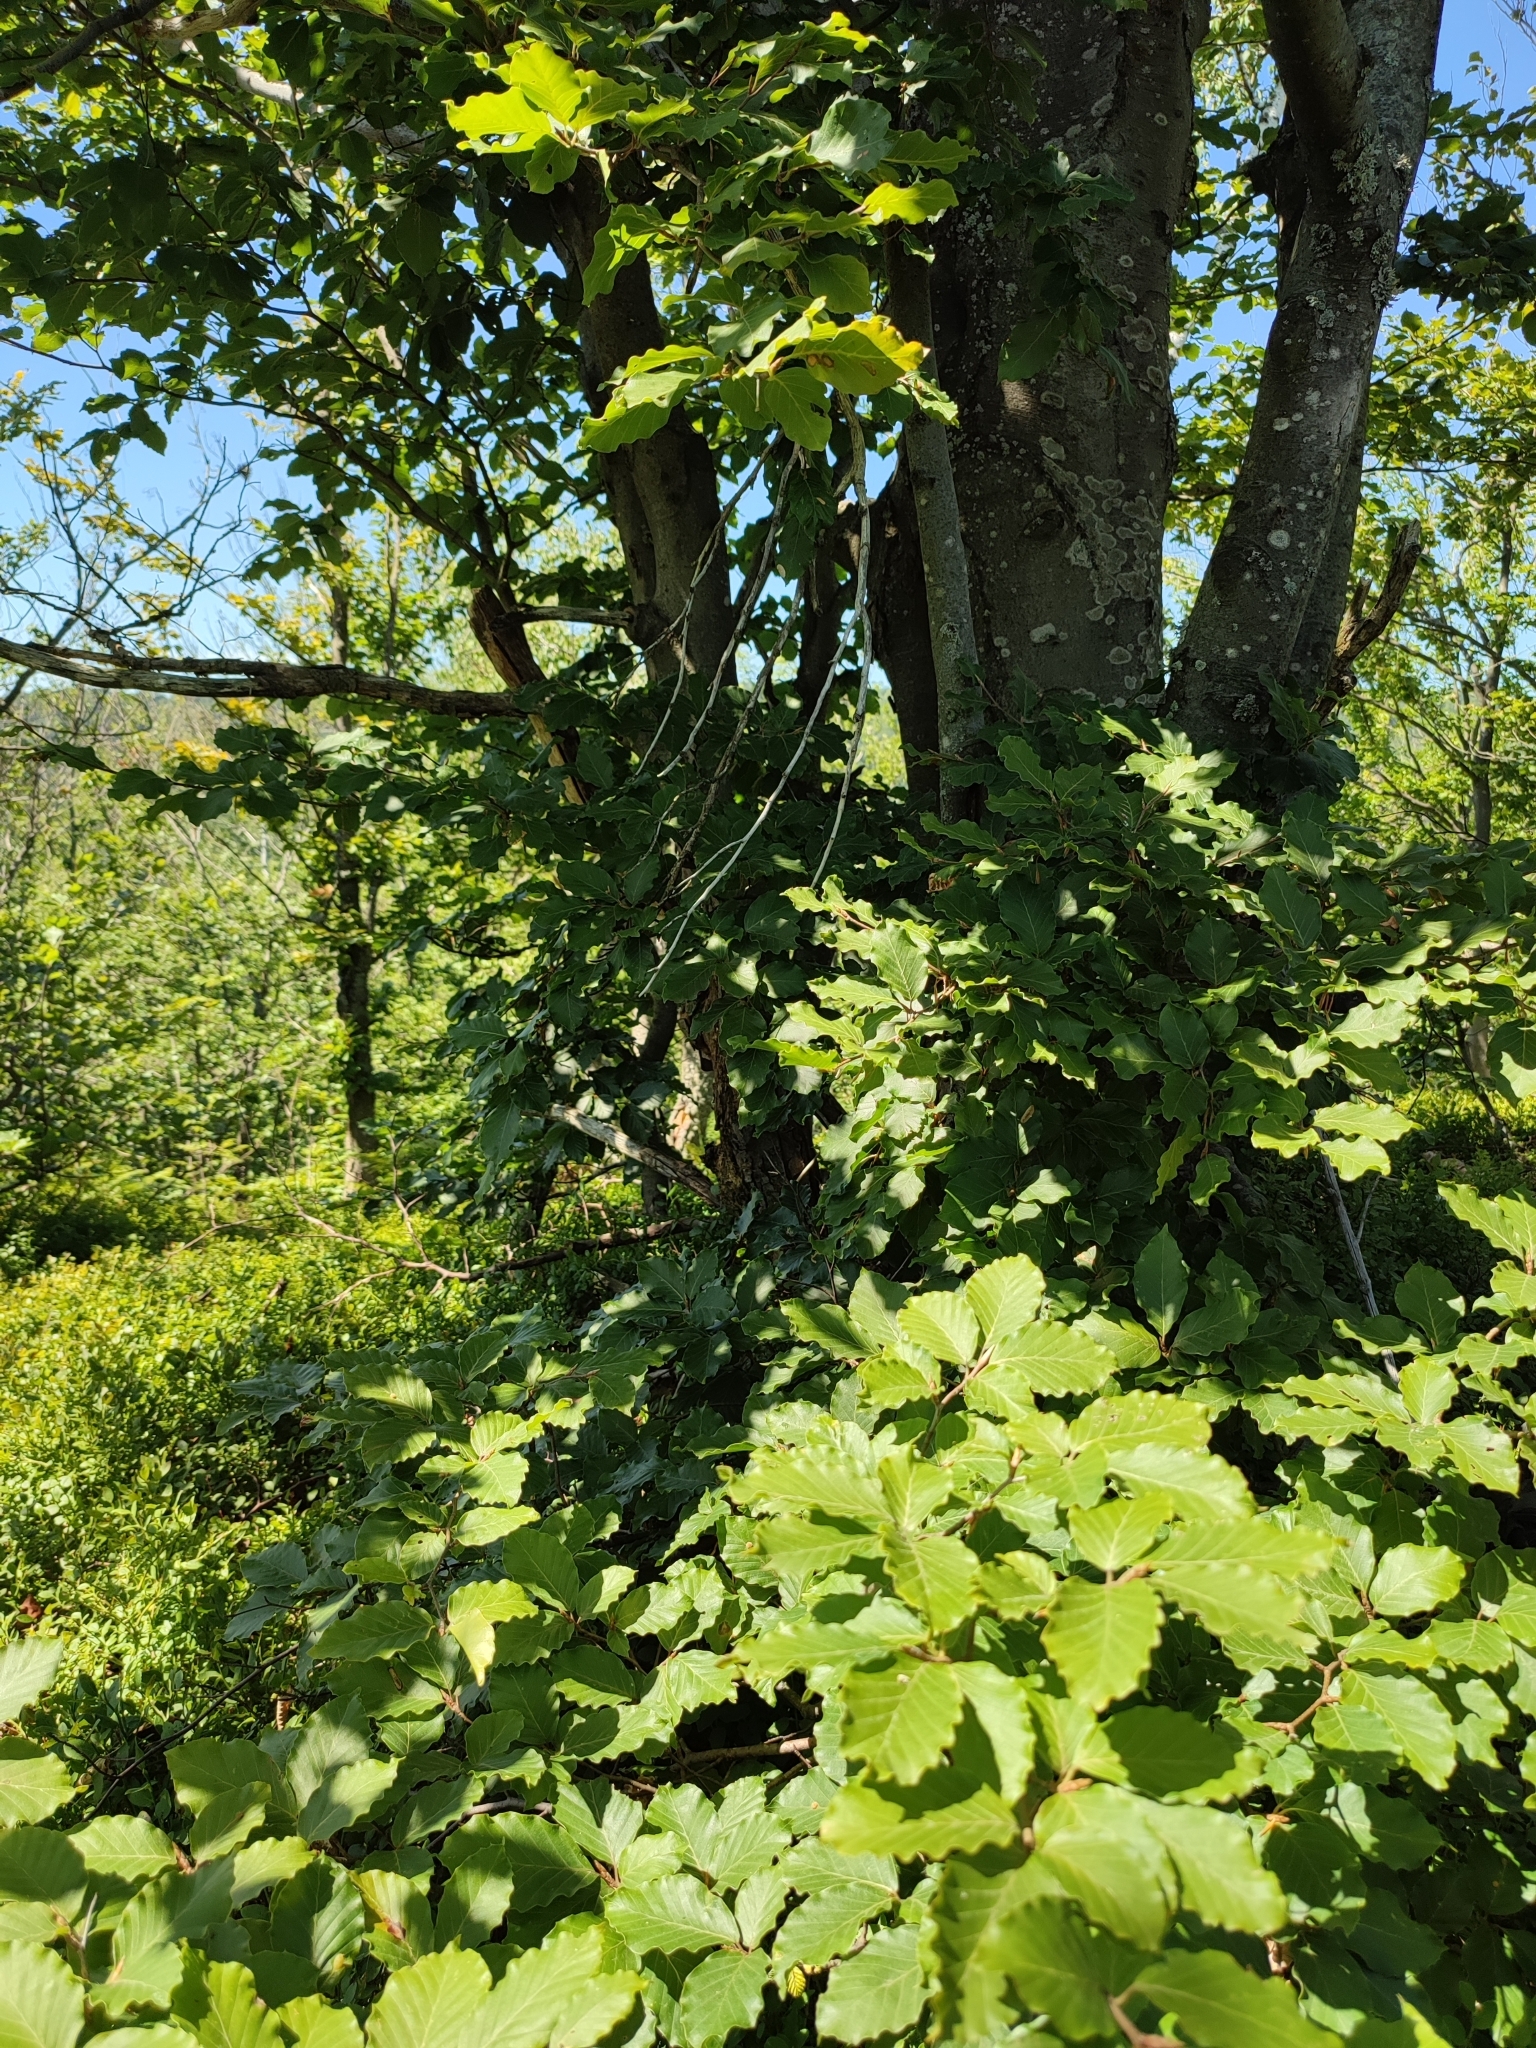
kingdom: Plantae
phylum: Tracheophyta
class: Magnoliopsida
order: Fagales
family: Fagaceae
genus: Fagus
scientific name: Fagus sylvatica
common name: Beech
